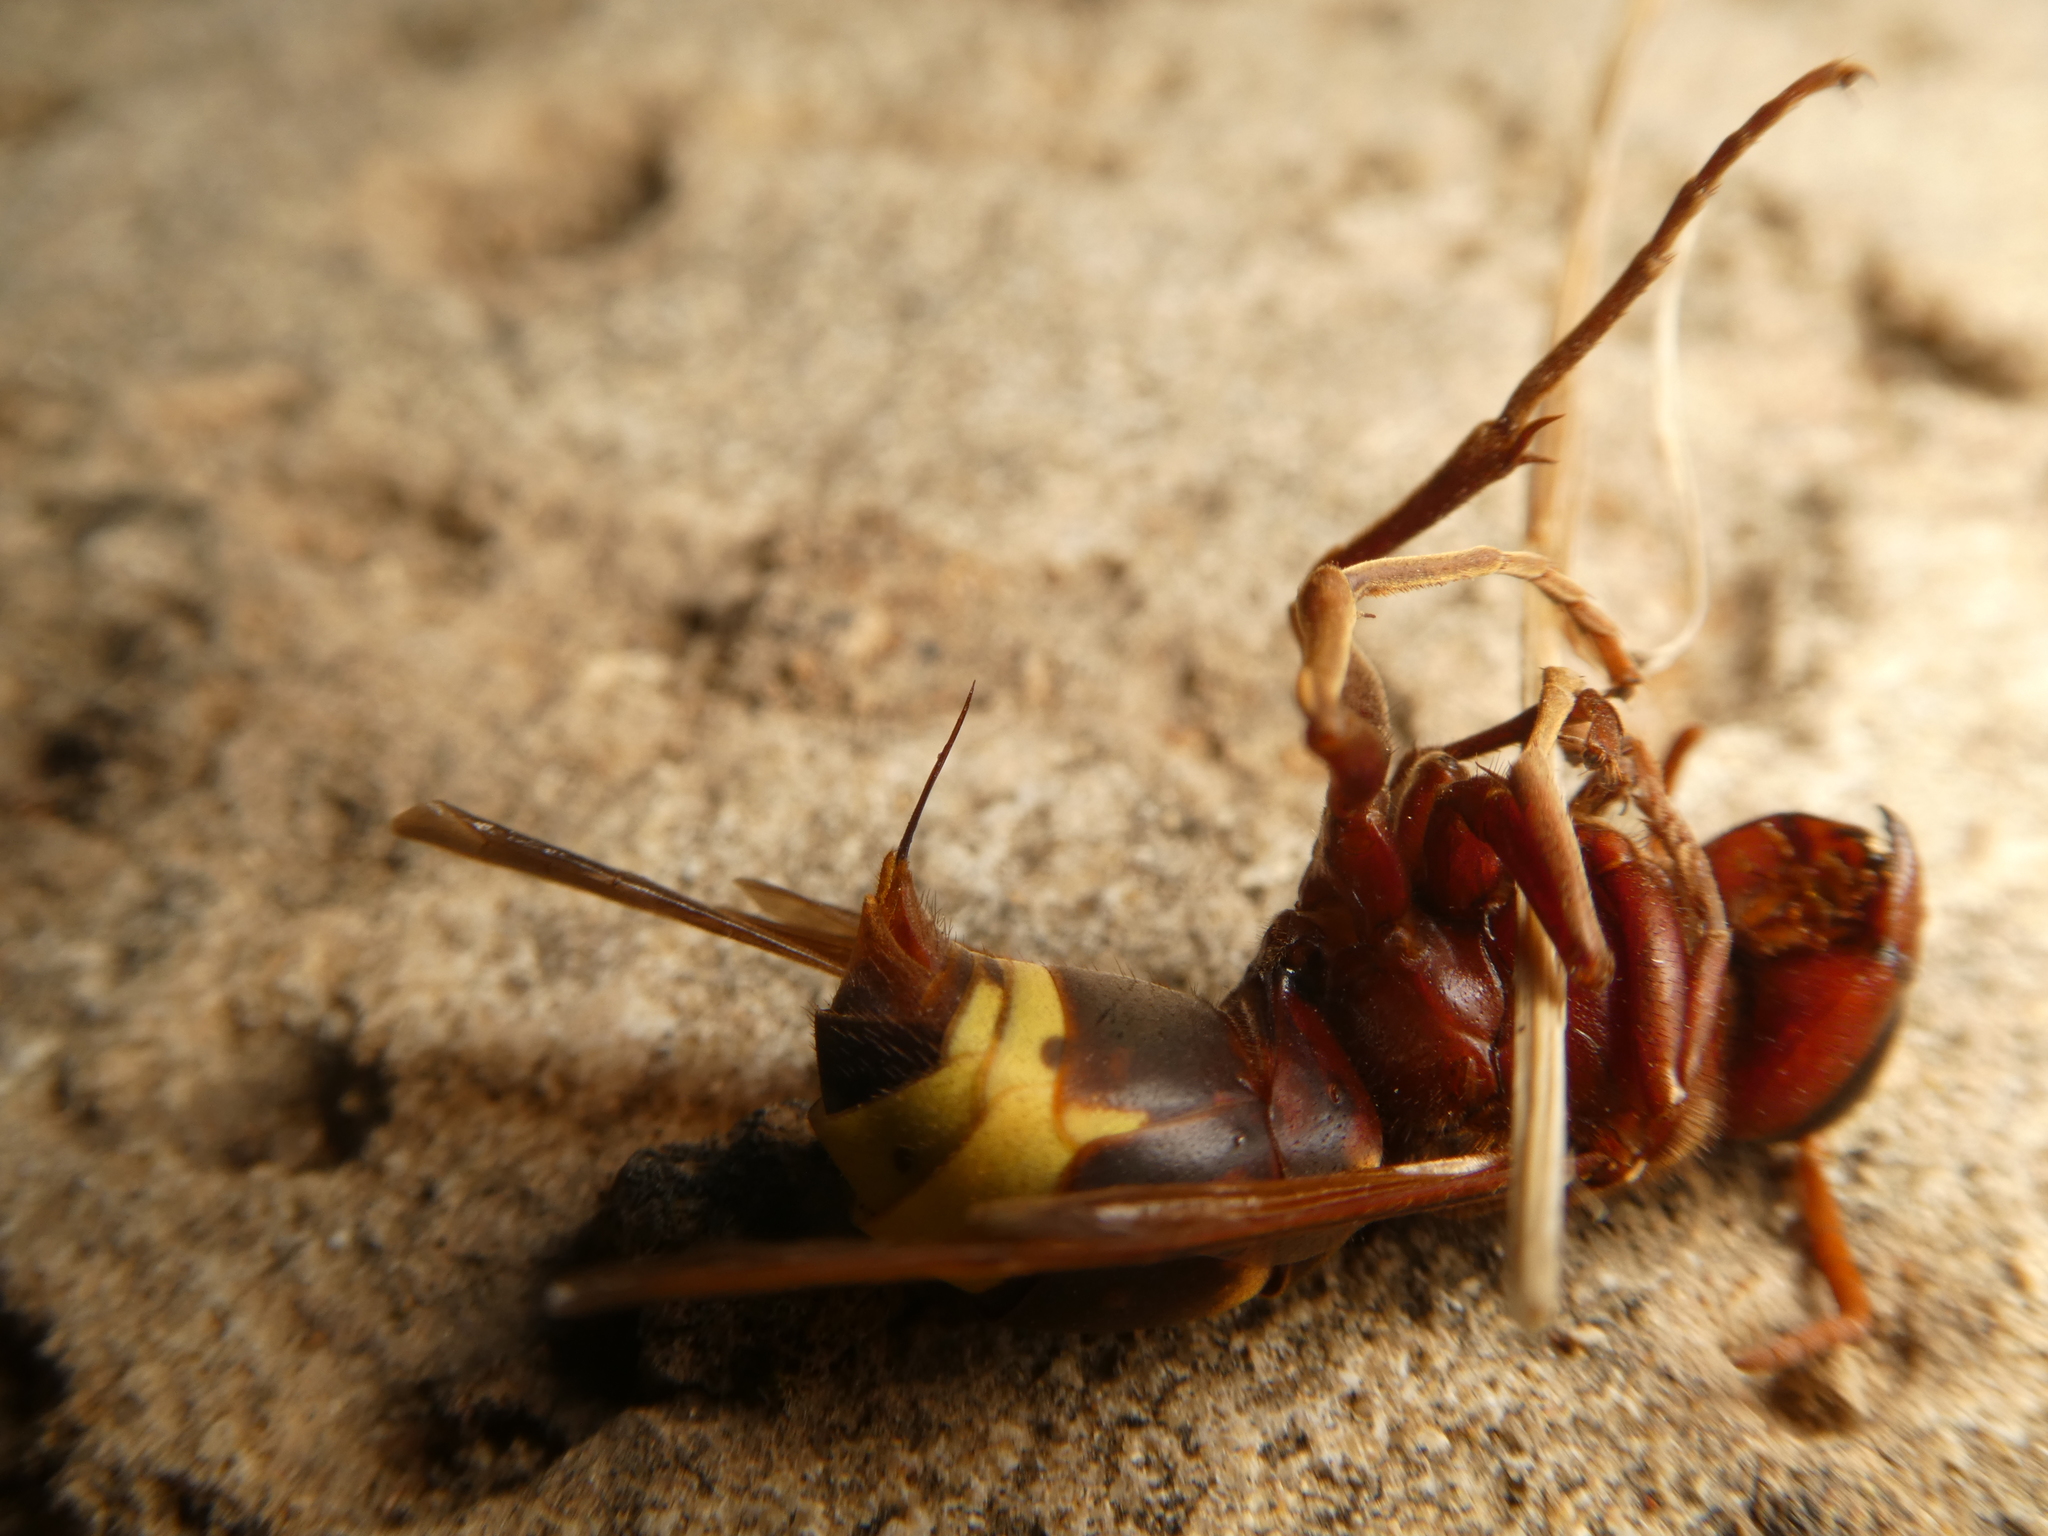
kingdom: Animalia
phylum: Arthropoda
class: Insecta
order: Hymenoptera
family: Vespidae
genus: Vespa
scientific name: Vespa orientalis
